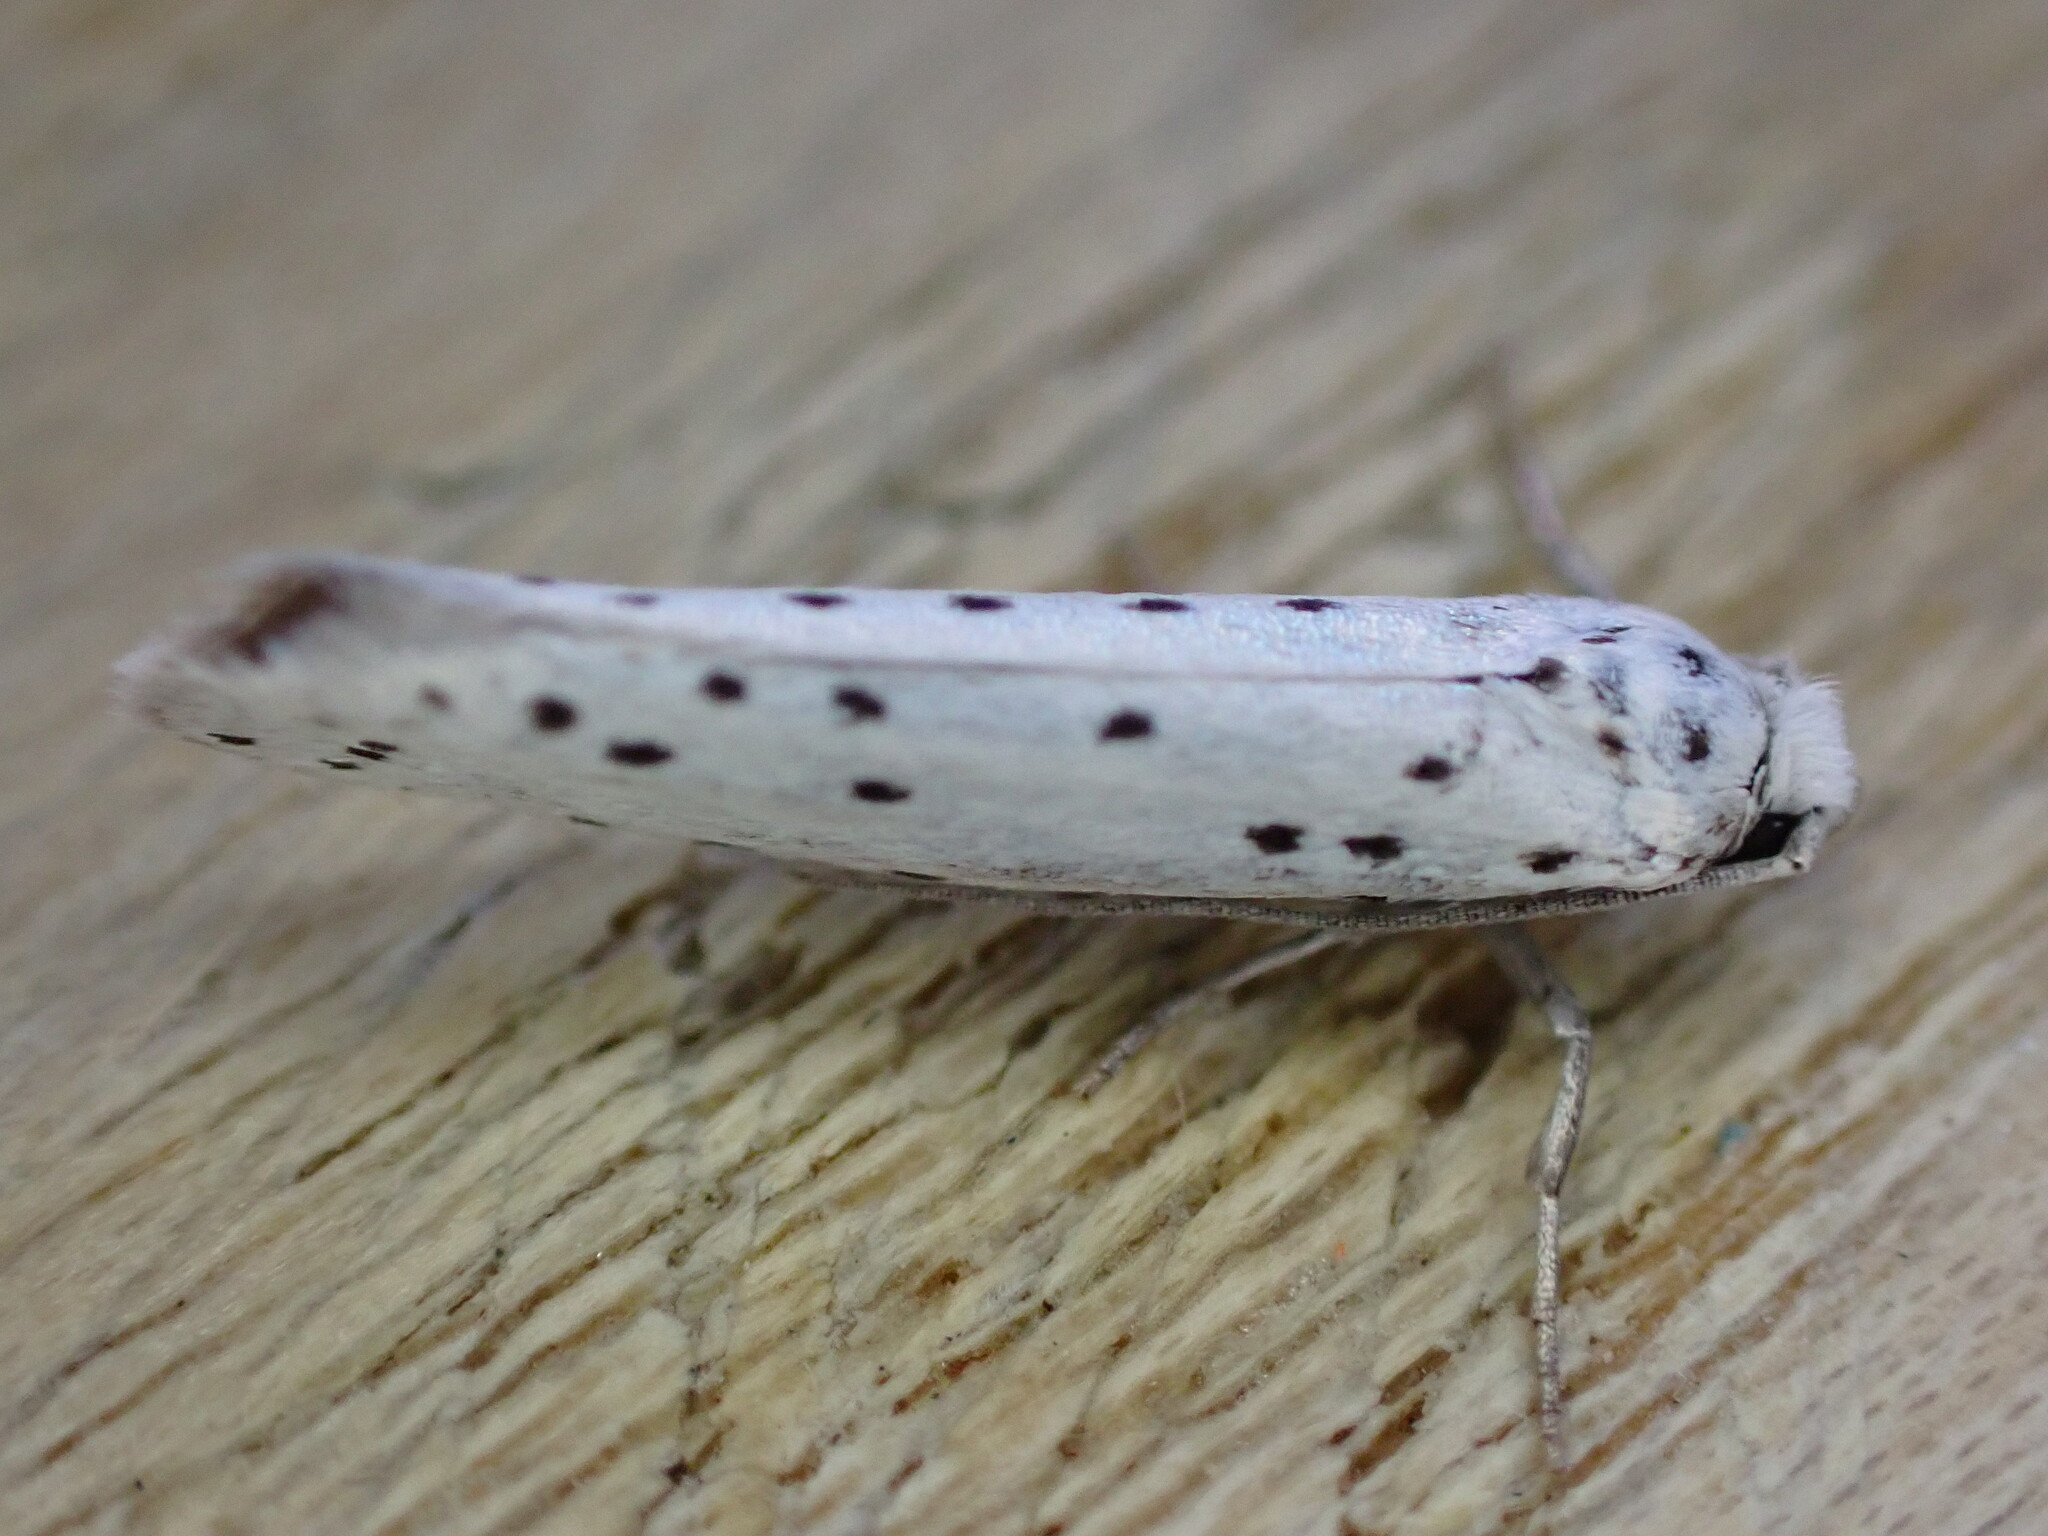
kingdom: Animalia
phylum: Arthropoda
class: Insecta
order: Lepidoptera
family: Yponomeutidae
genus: Yponomeuta
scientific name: Yponomeuta
